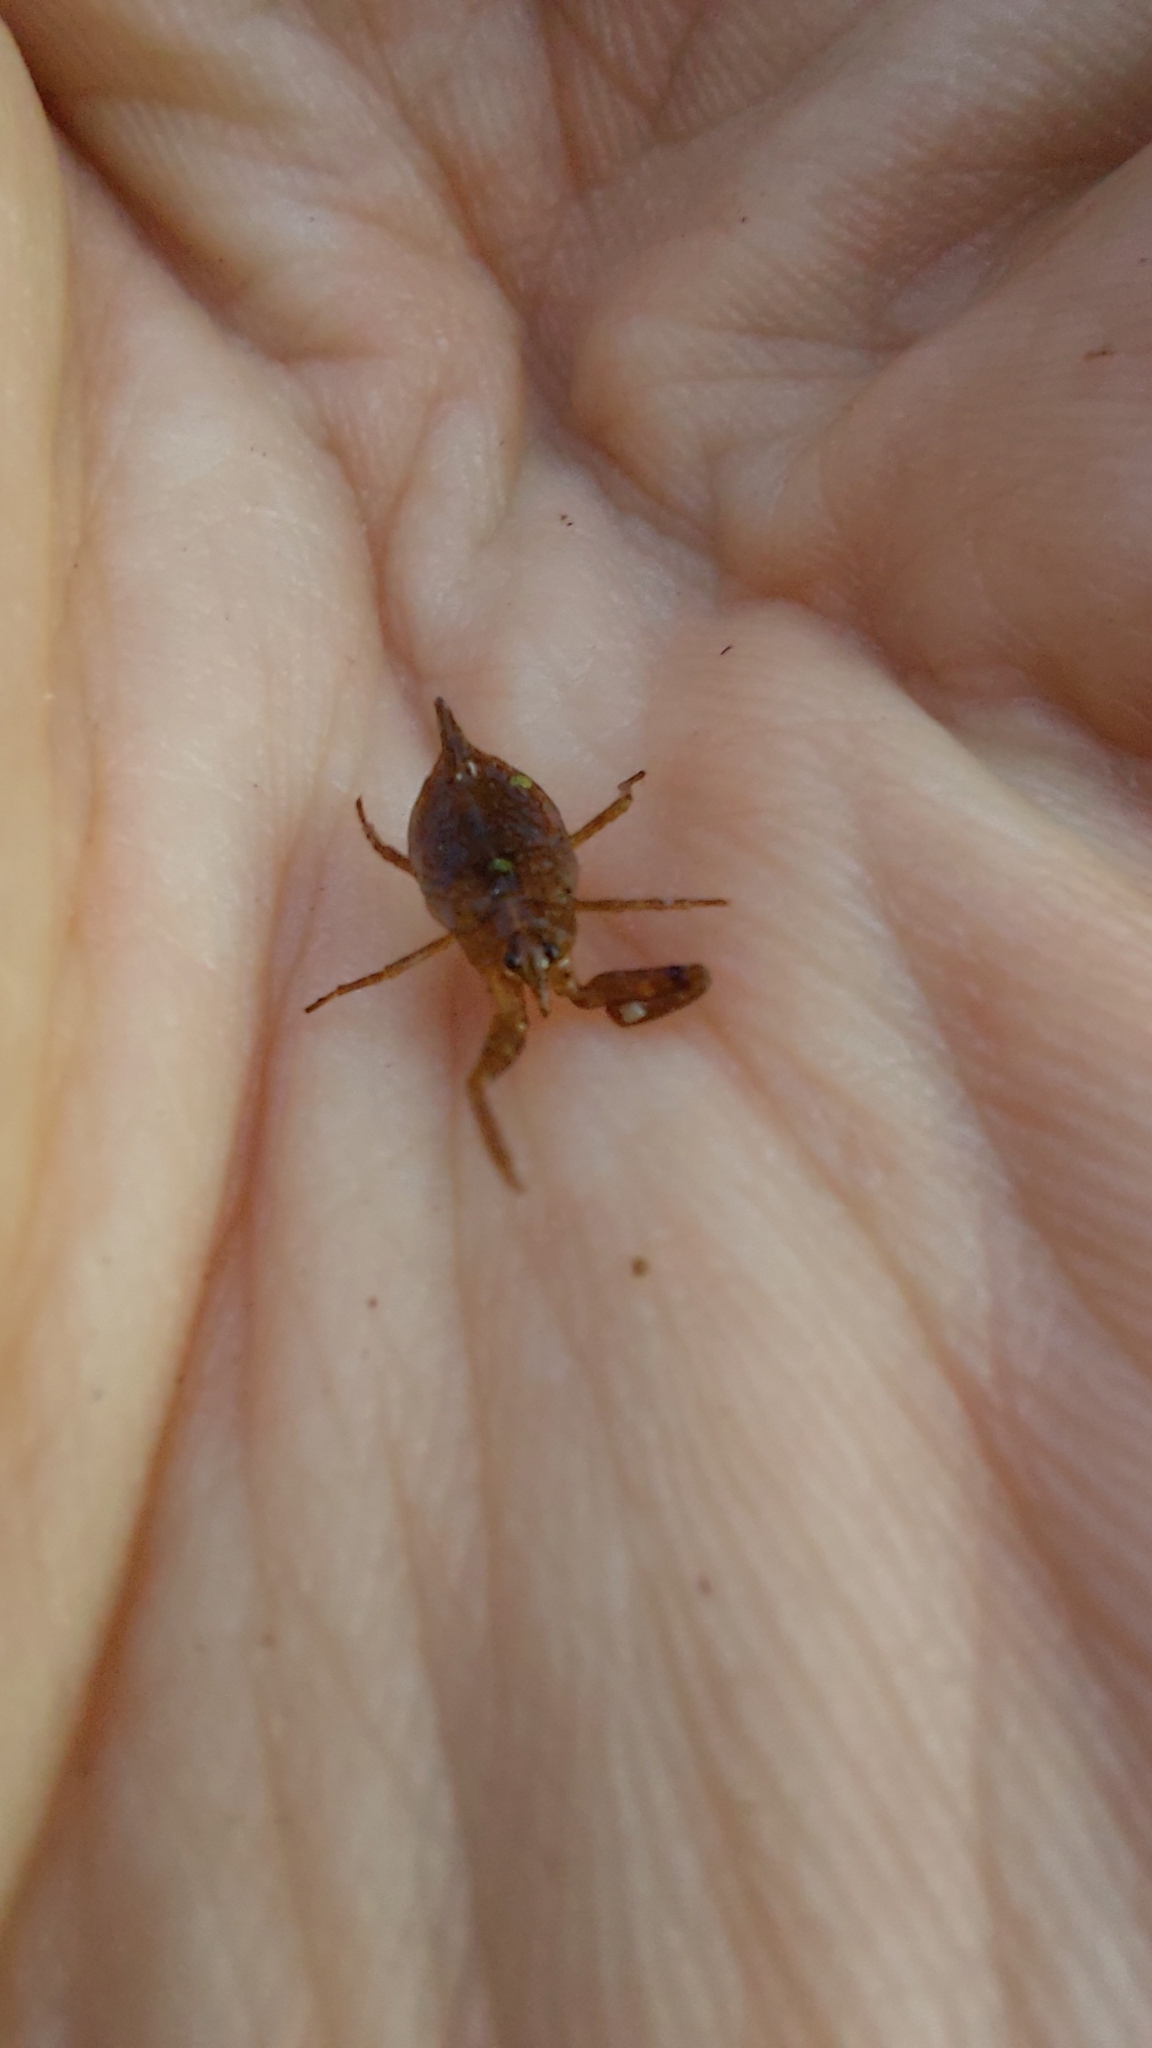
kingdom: Animalia
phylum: Arthropoda
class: Insecta
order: Hemiptera
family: Nepidae
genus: Nepa
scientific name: Nepa cinerea
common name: Water scorpion
